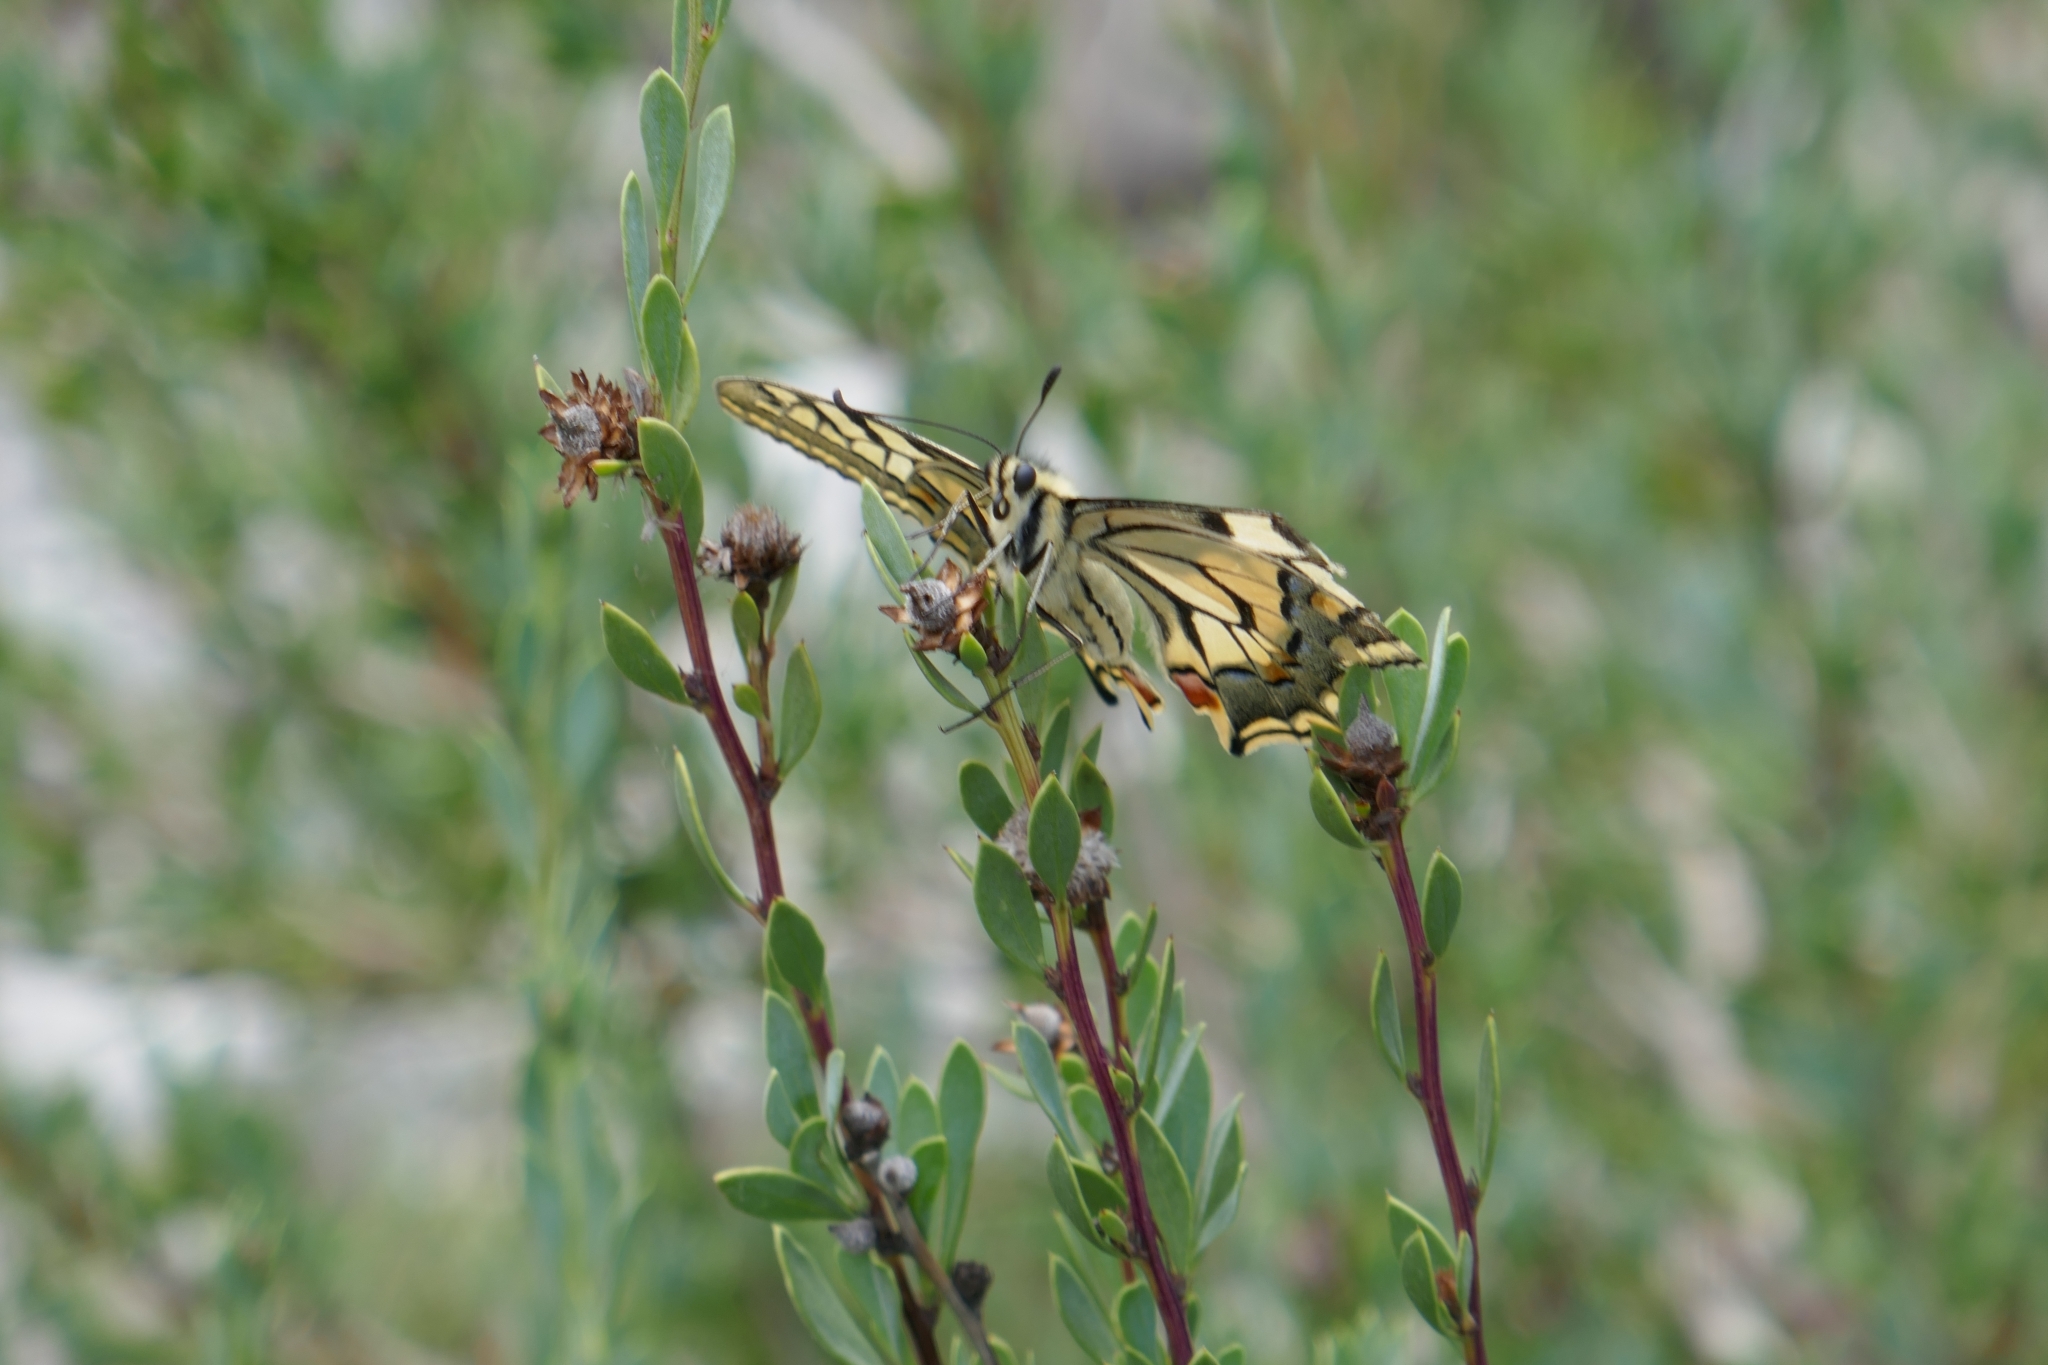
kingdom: Animalia
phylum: Arthropoda
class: Insecta
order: Lepidoptera
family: Papilionidae
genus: Papilio
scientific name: Papilio machaon
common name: Swallowtail
